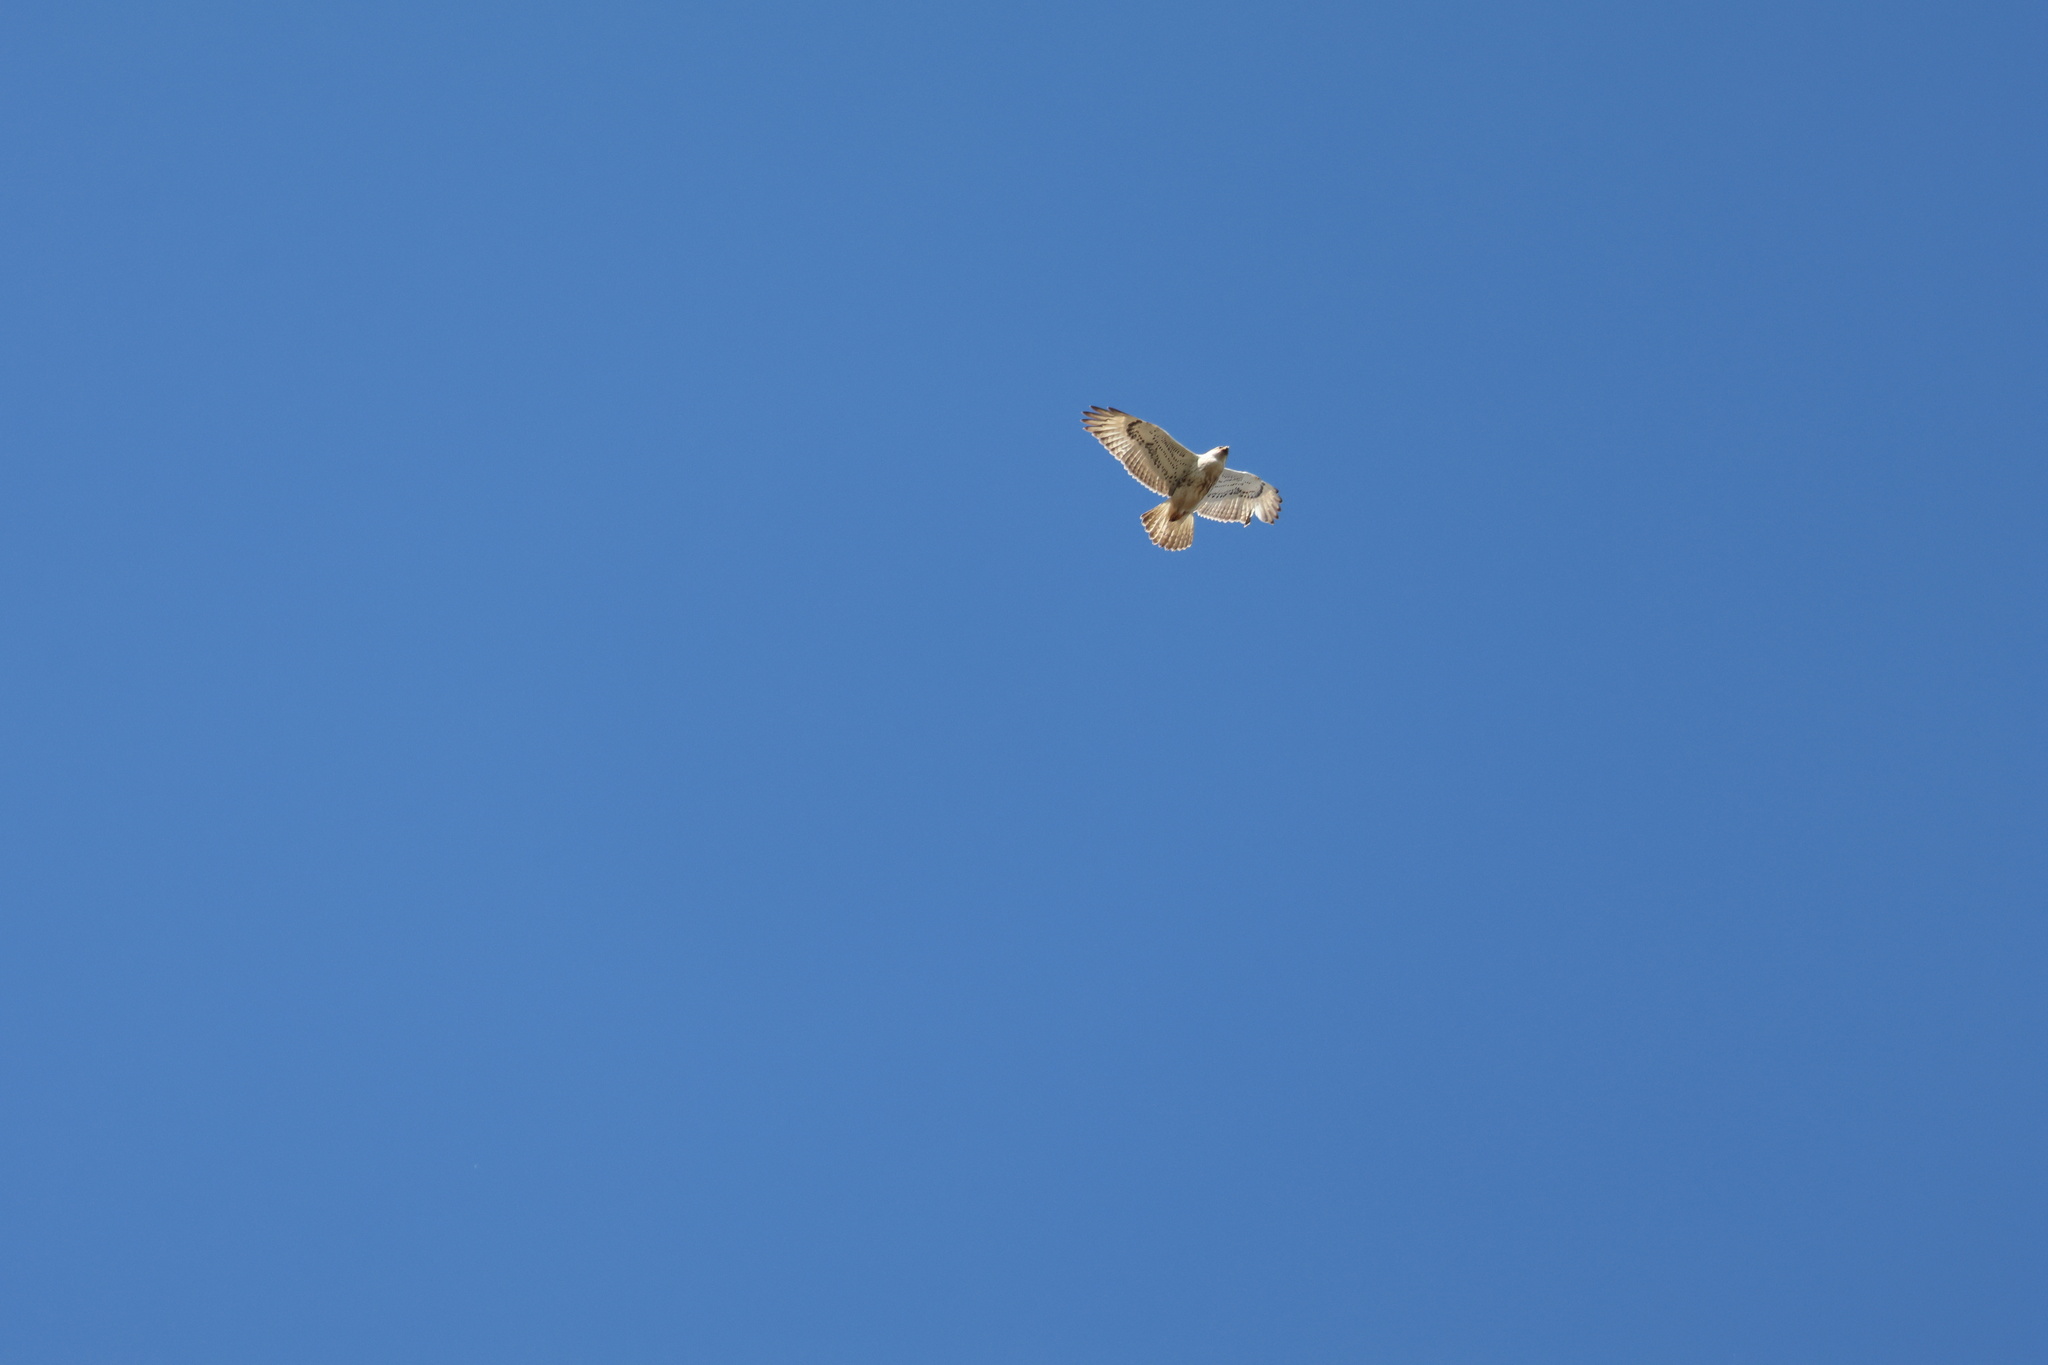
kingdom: Animalia
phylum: Chordata
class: Aves
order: Accipitriformes
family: Accipitridae
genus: Buteo
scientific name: Buteo regalis
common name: Ferruginous hawk
